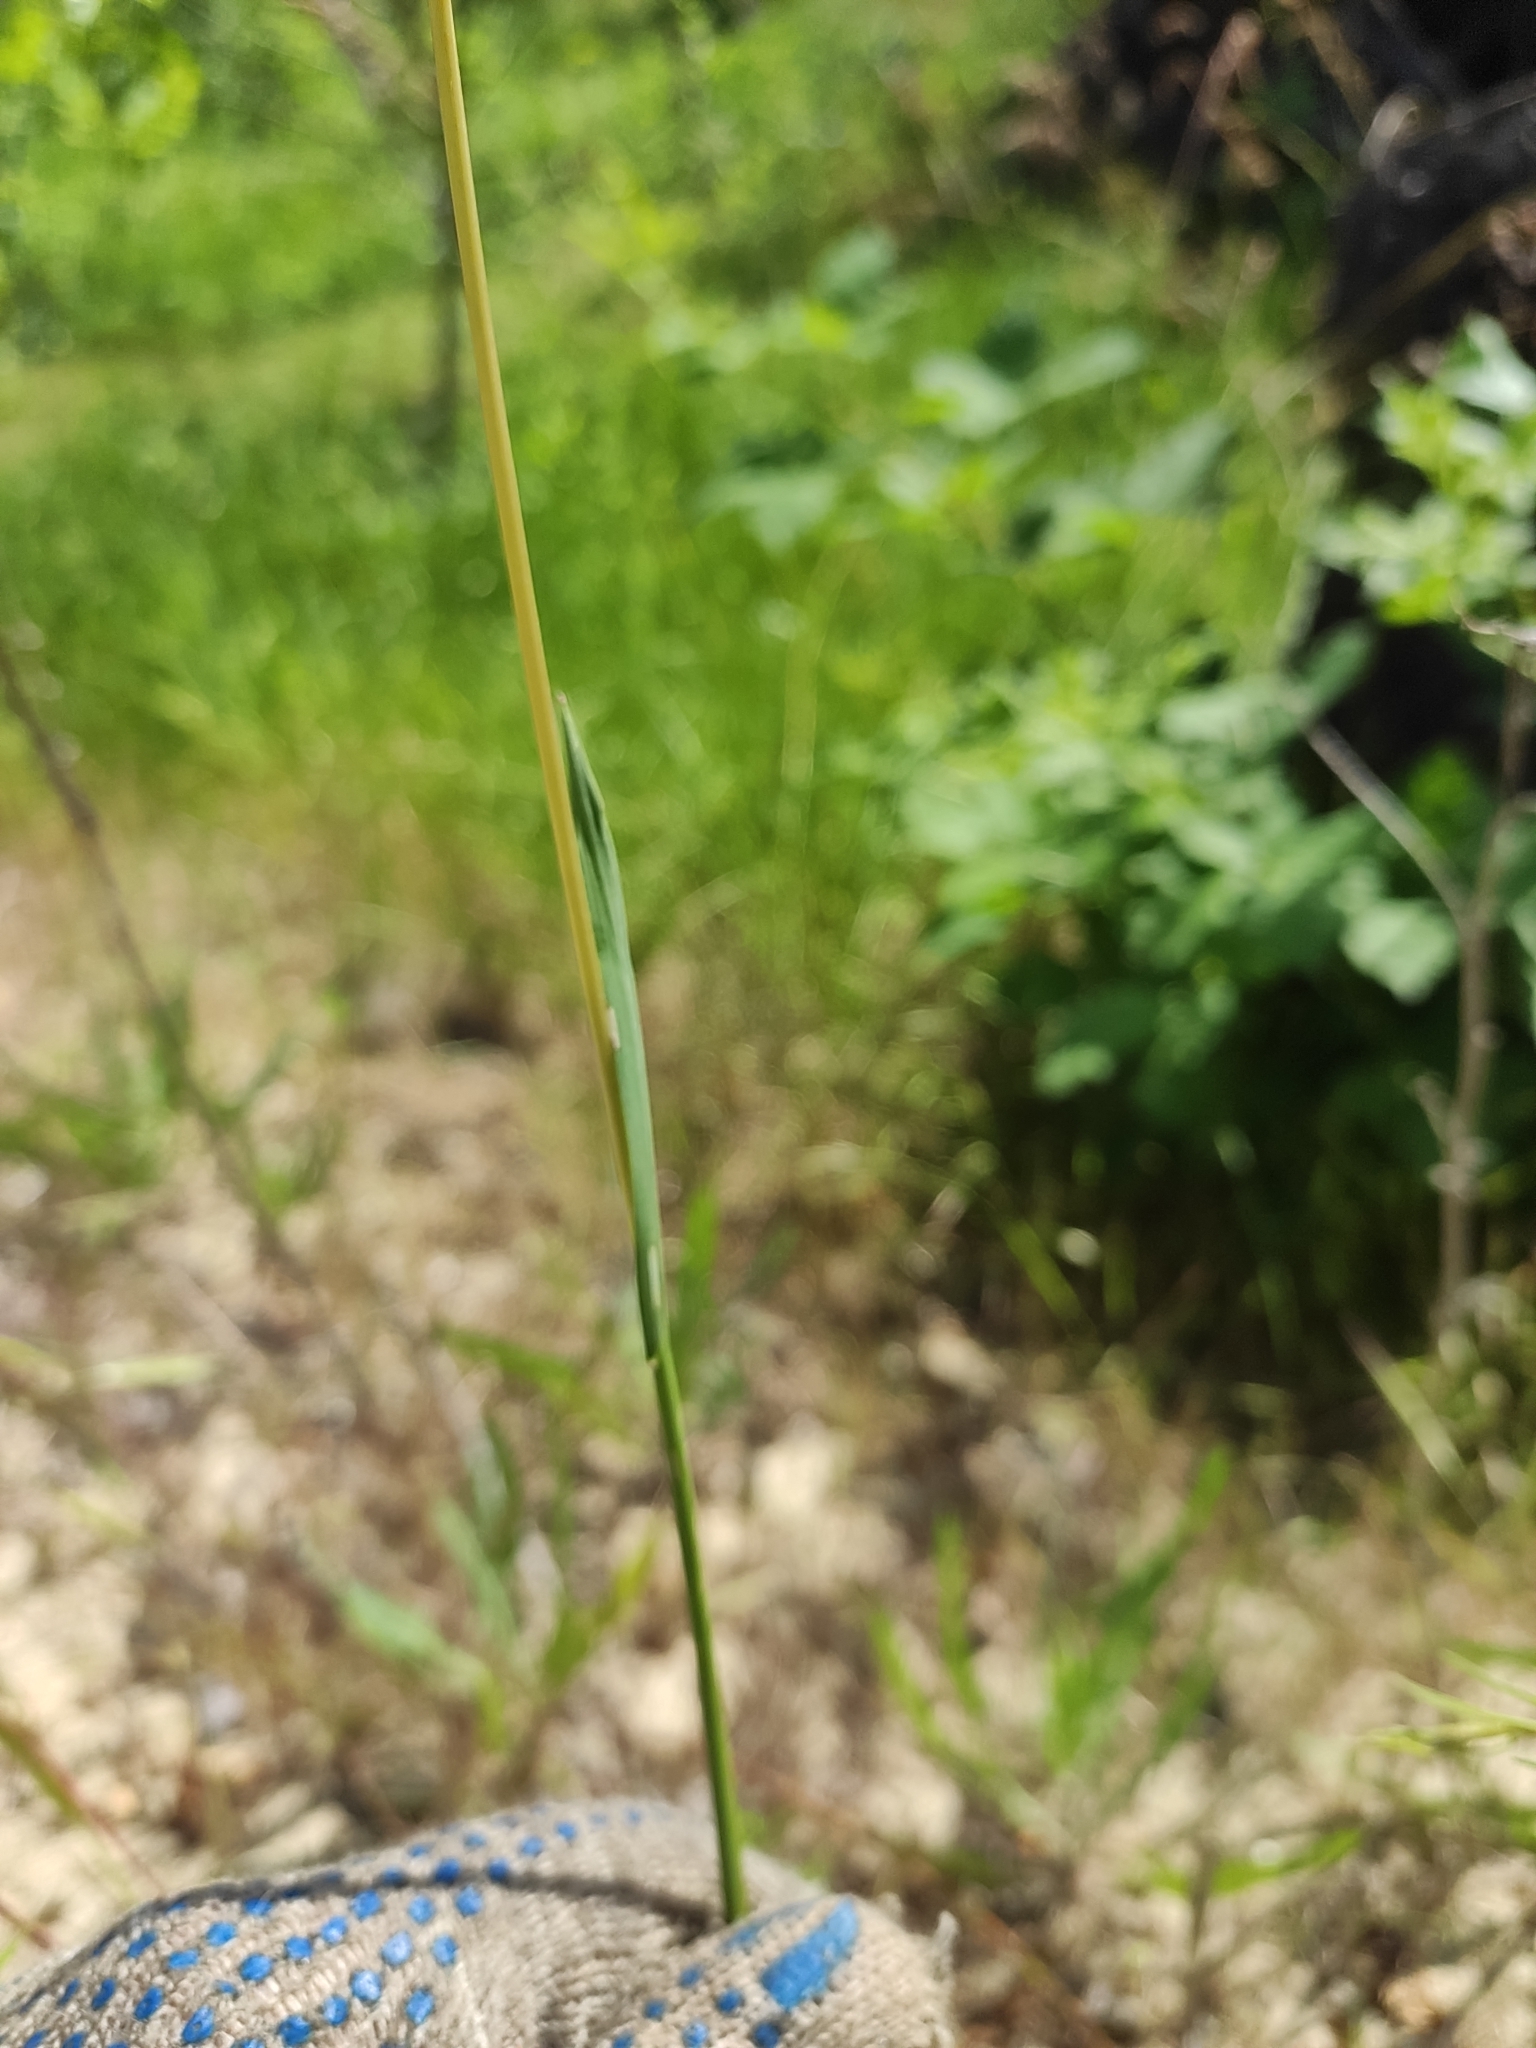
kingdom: Plantae
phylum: Tracheophyta
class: Liliopsida
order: Poales
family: Poaceae
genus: Phleum
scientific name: Phleum phleoides
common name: Purple-stem cat's-tail
